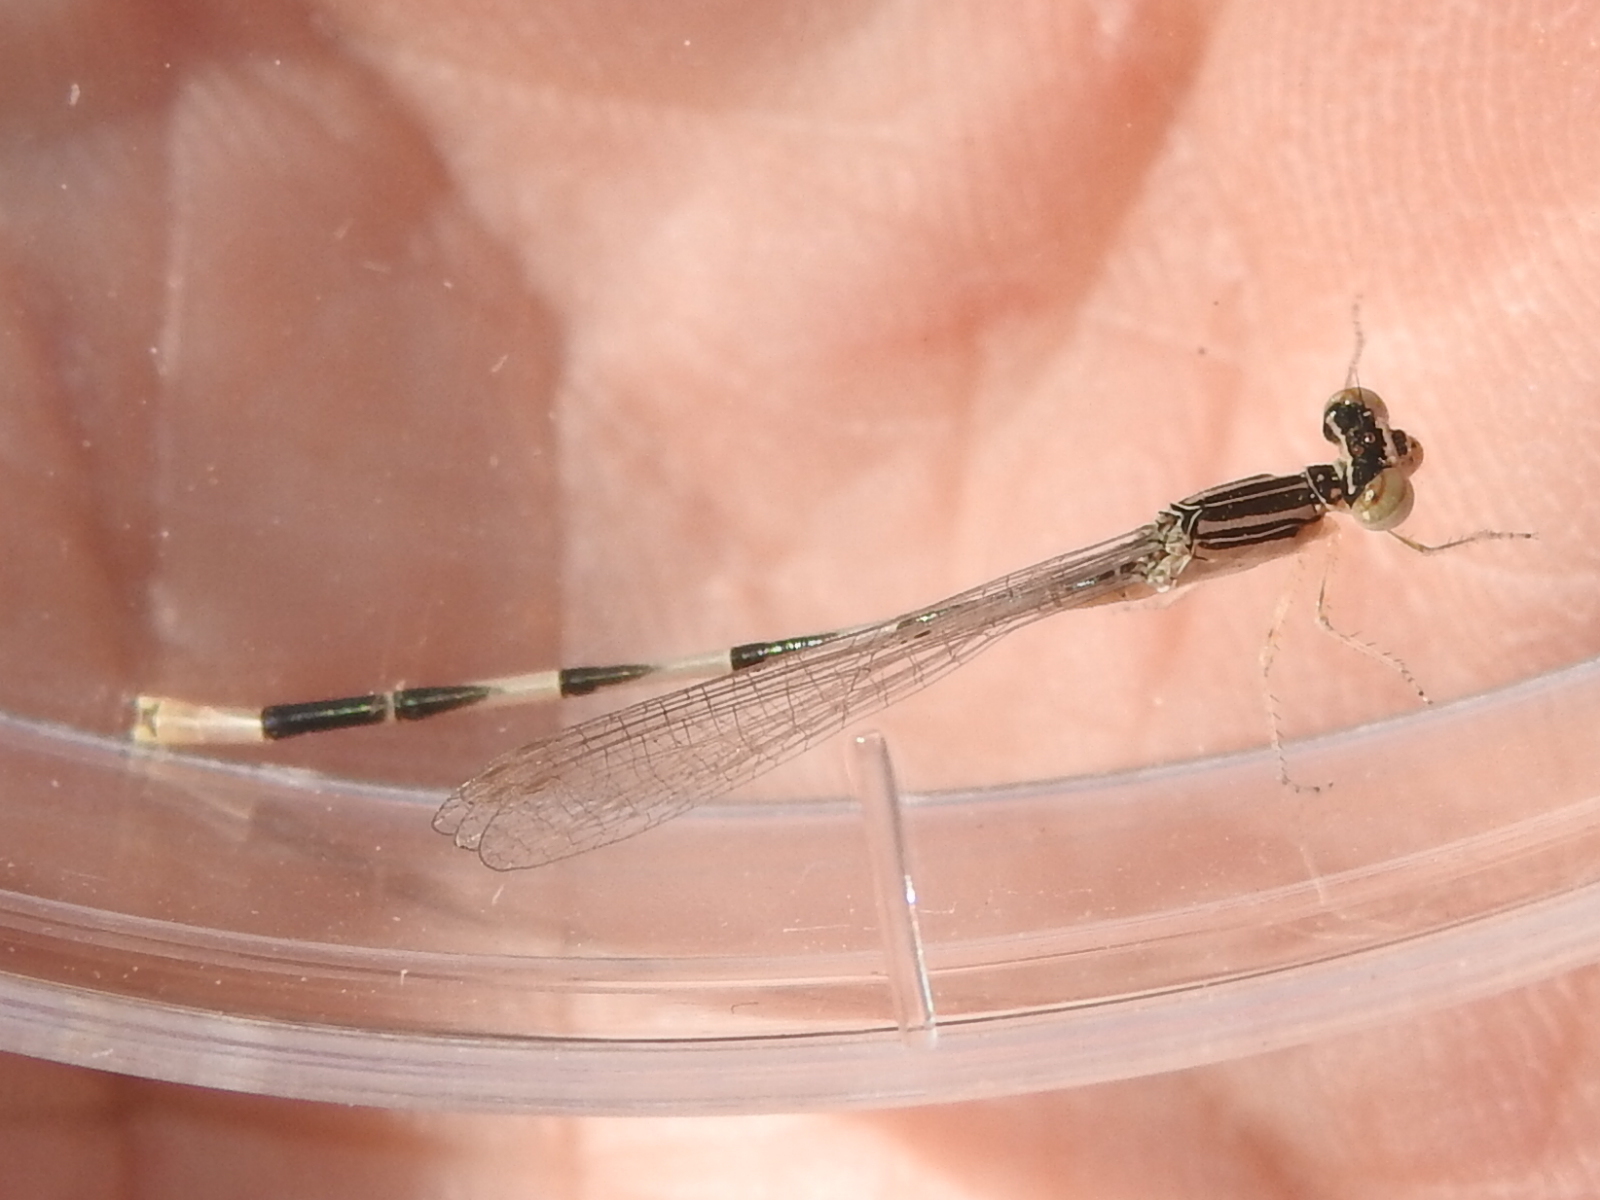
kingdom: Animalia
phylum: Arthropoda
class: Insecta
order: Odonata
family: Coenagrionidae
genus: Enallagma
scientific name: Enallagma basidens
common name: Double-striped bluet
